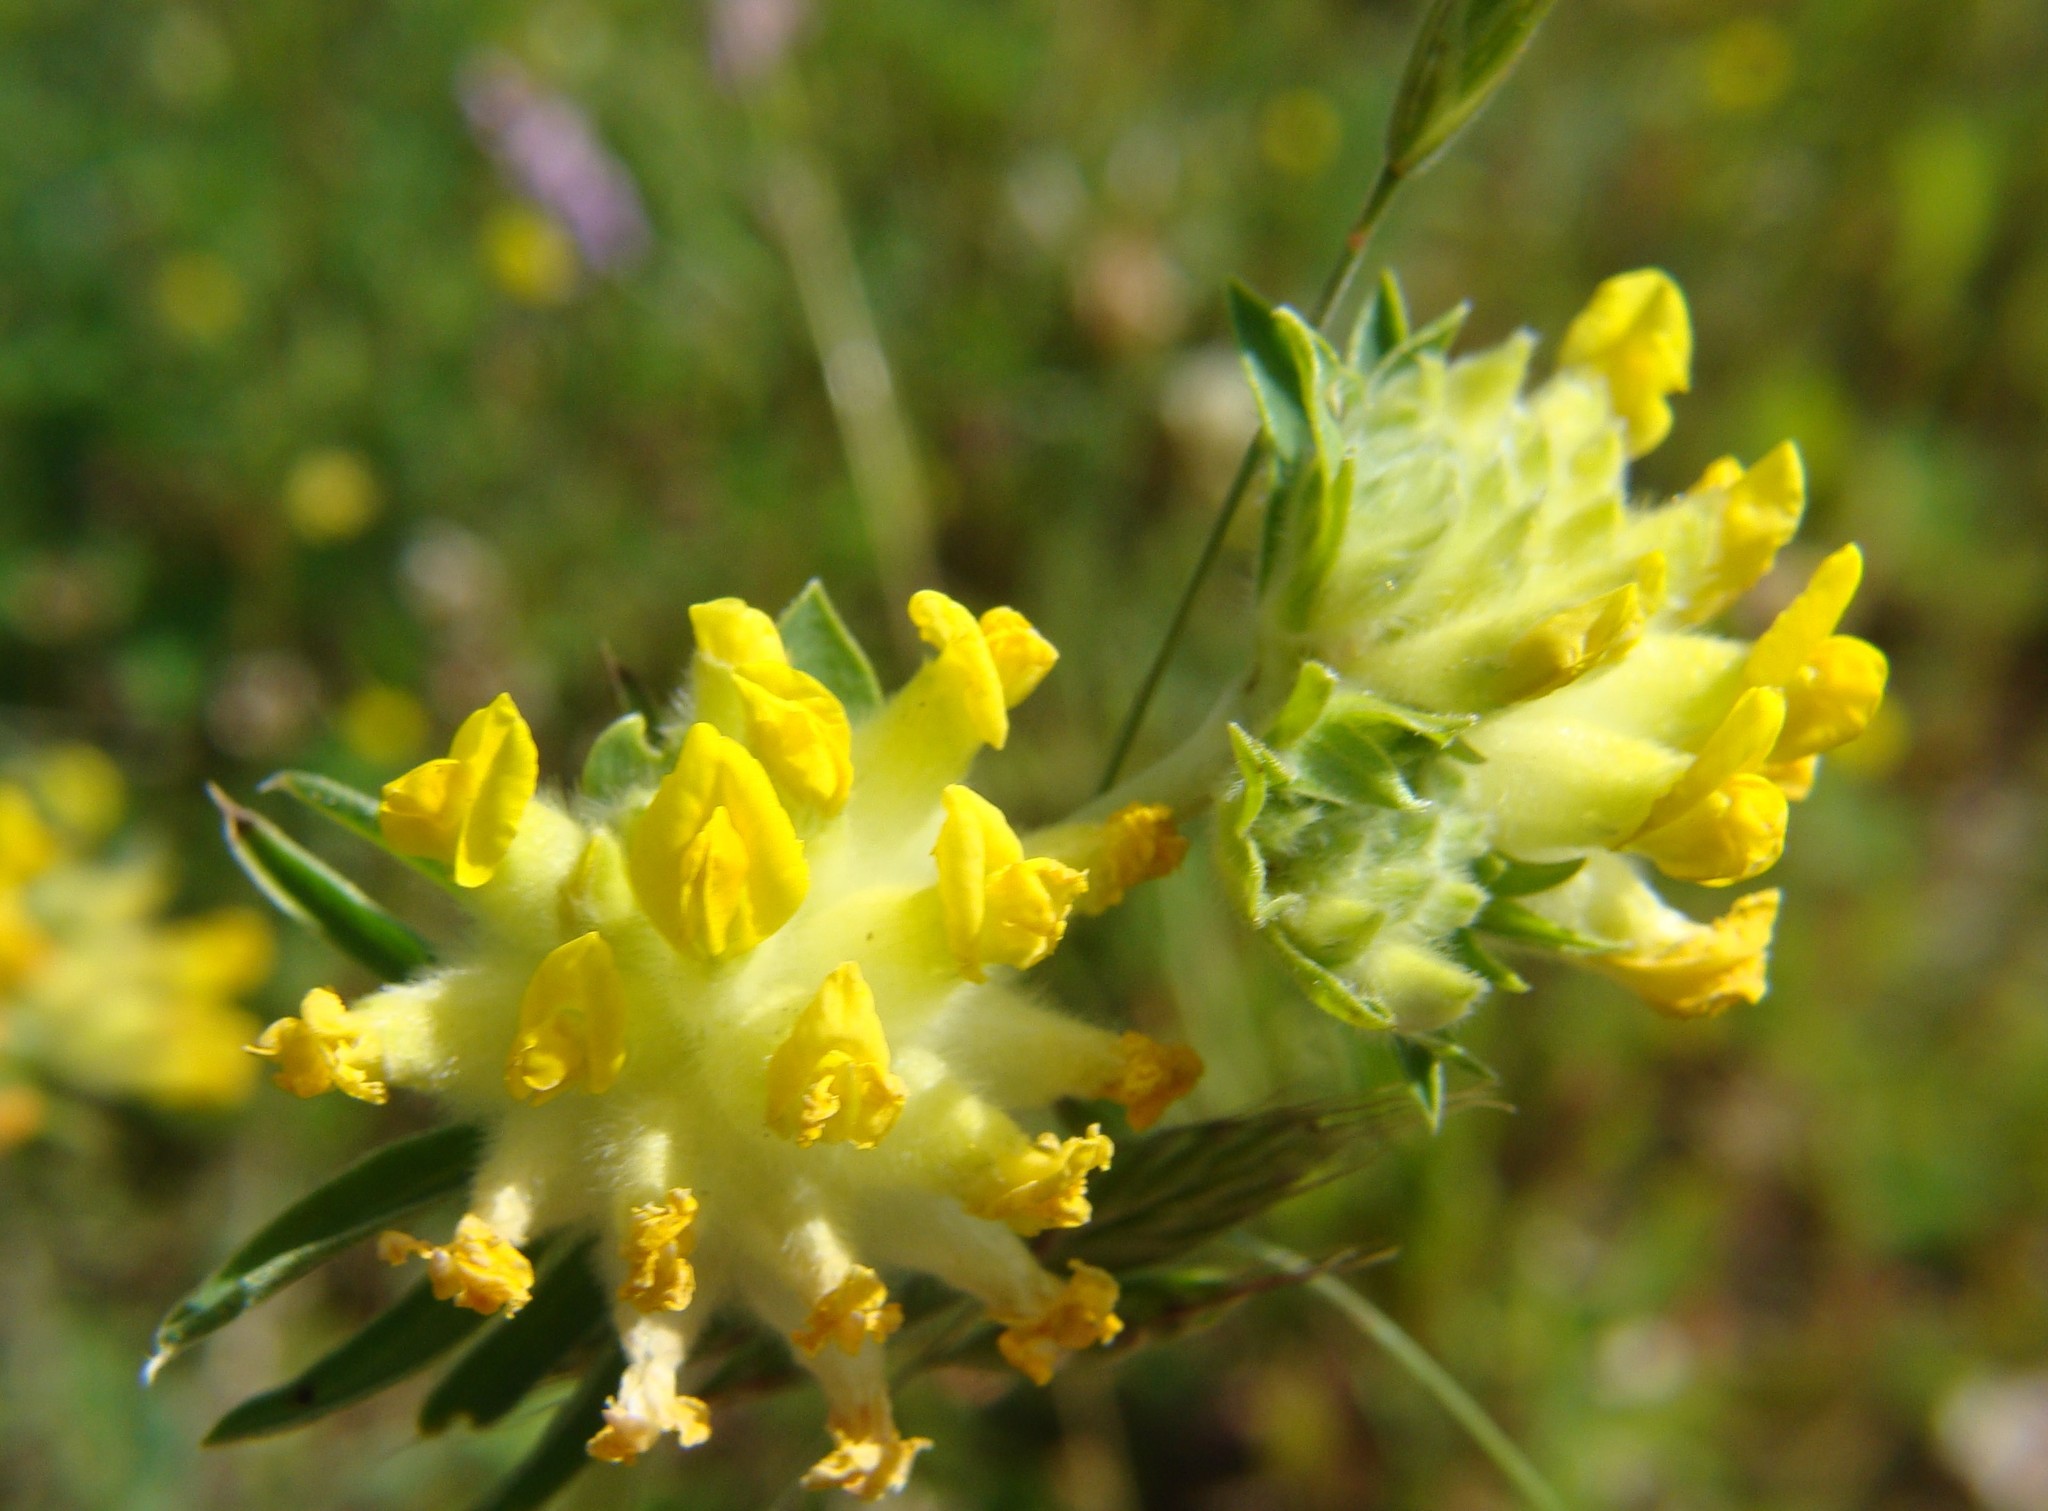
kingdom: Plantae
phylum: Tracheophyta
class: Magnoliopsida
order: Fabales
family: Fabaceae
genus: Anthyllis
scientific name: Anthyllis vulneraria
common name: Kidney vetch
